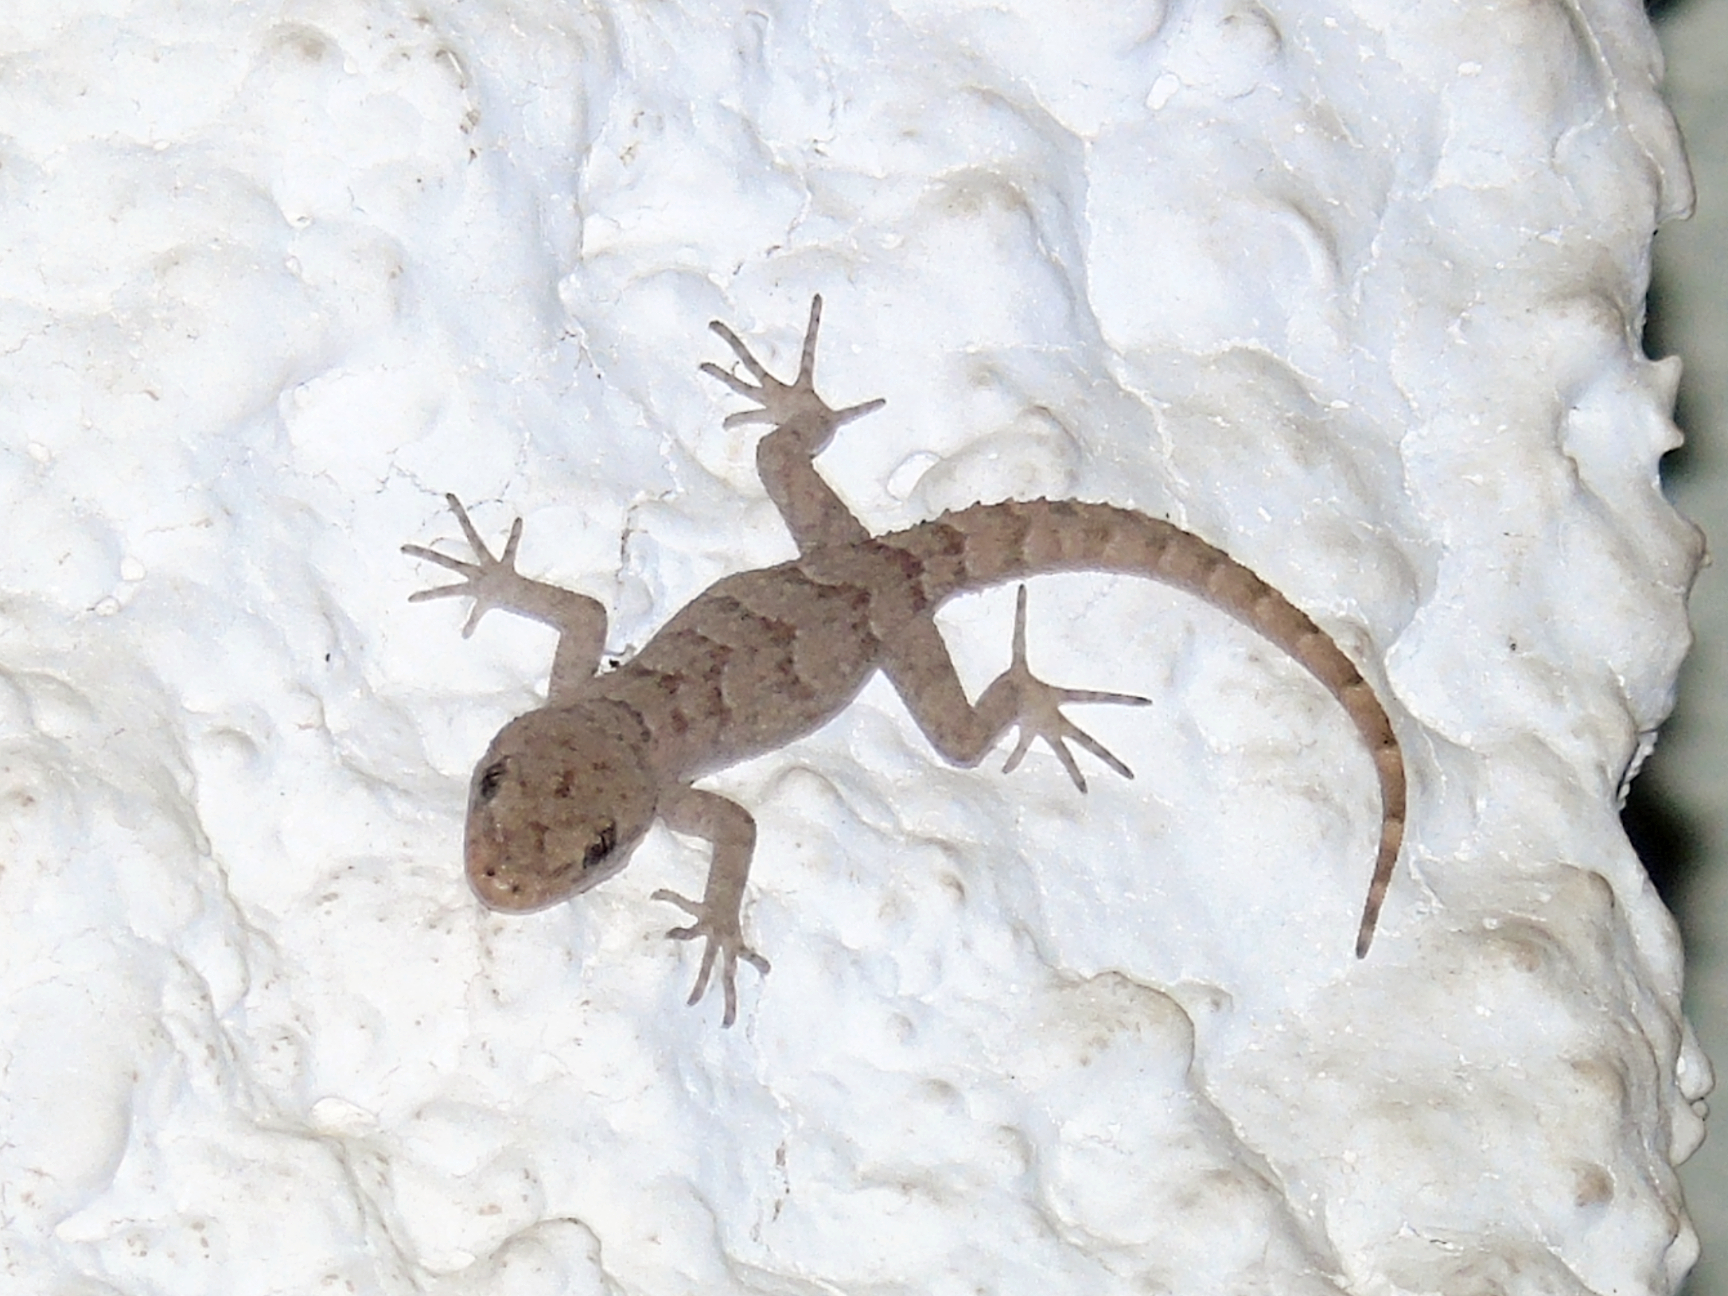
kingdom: Animalia
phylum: Chordata
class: Squamata
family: Gekkonidae
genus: Mediodactylus
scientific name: Mediodactylus kotschyi
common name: Kotschy's gecko
